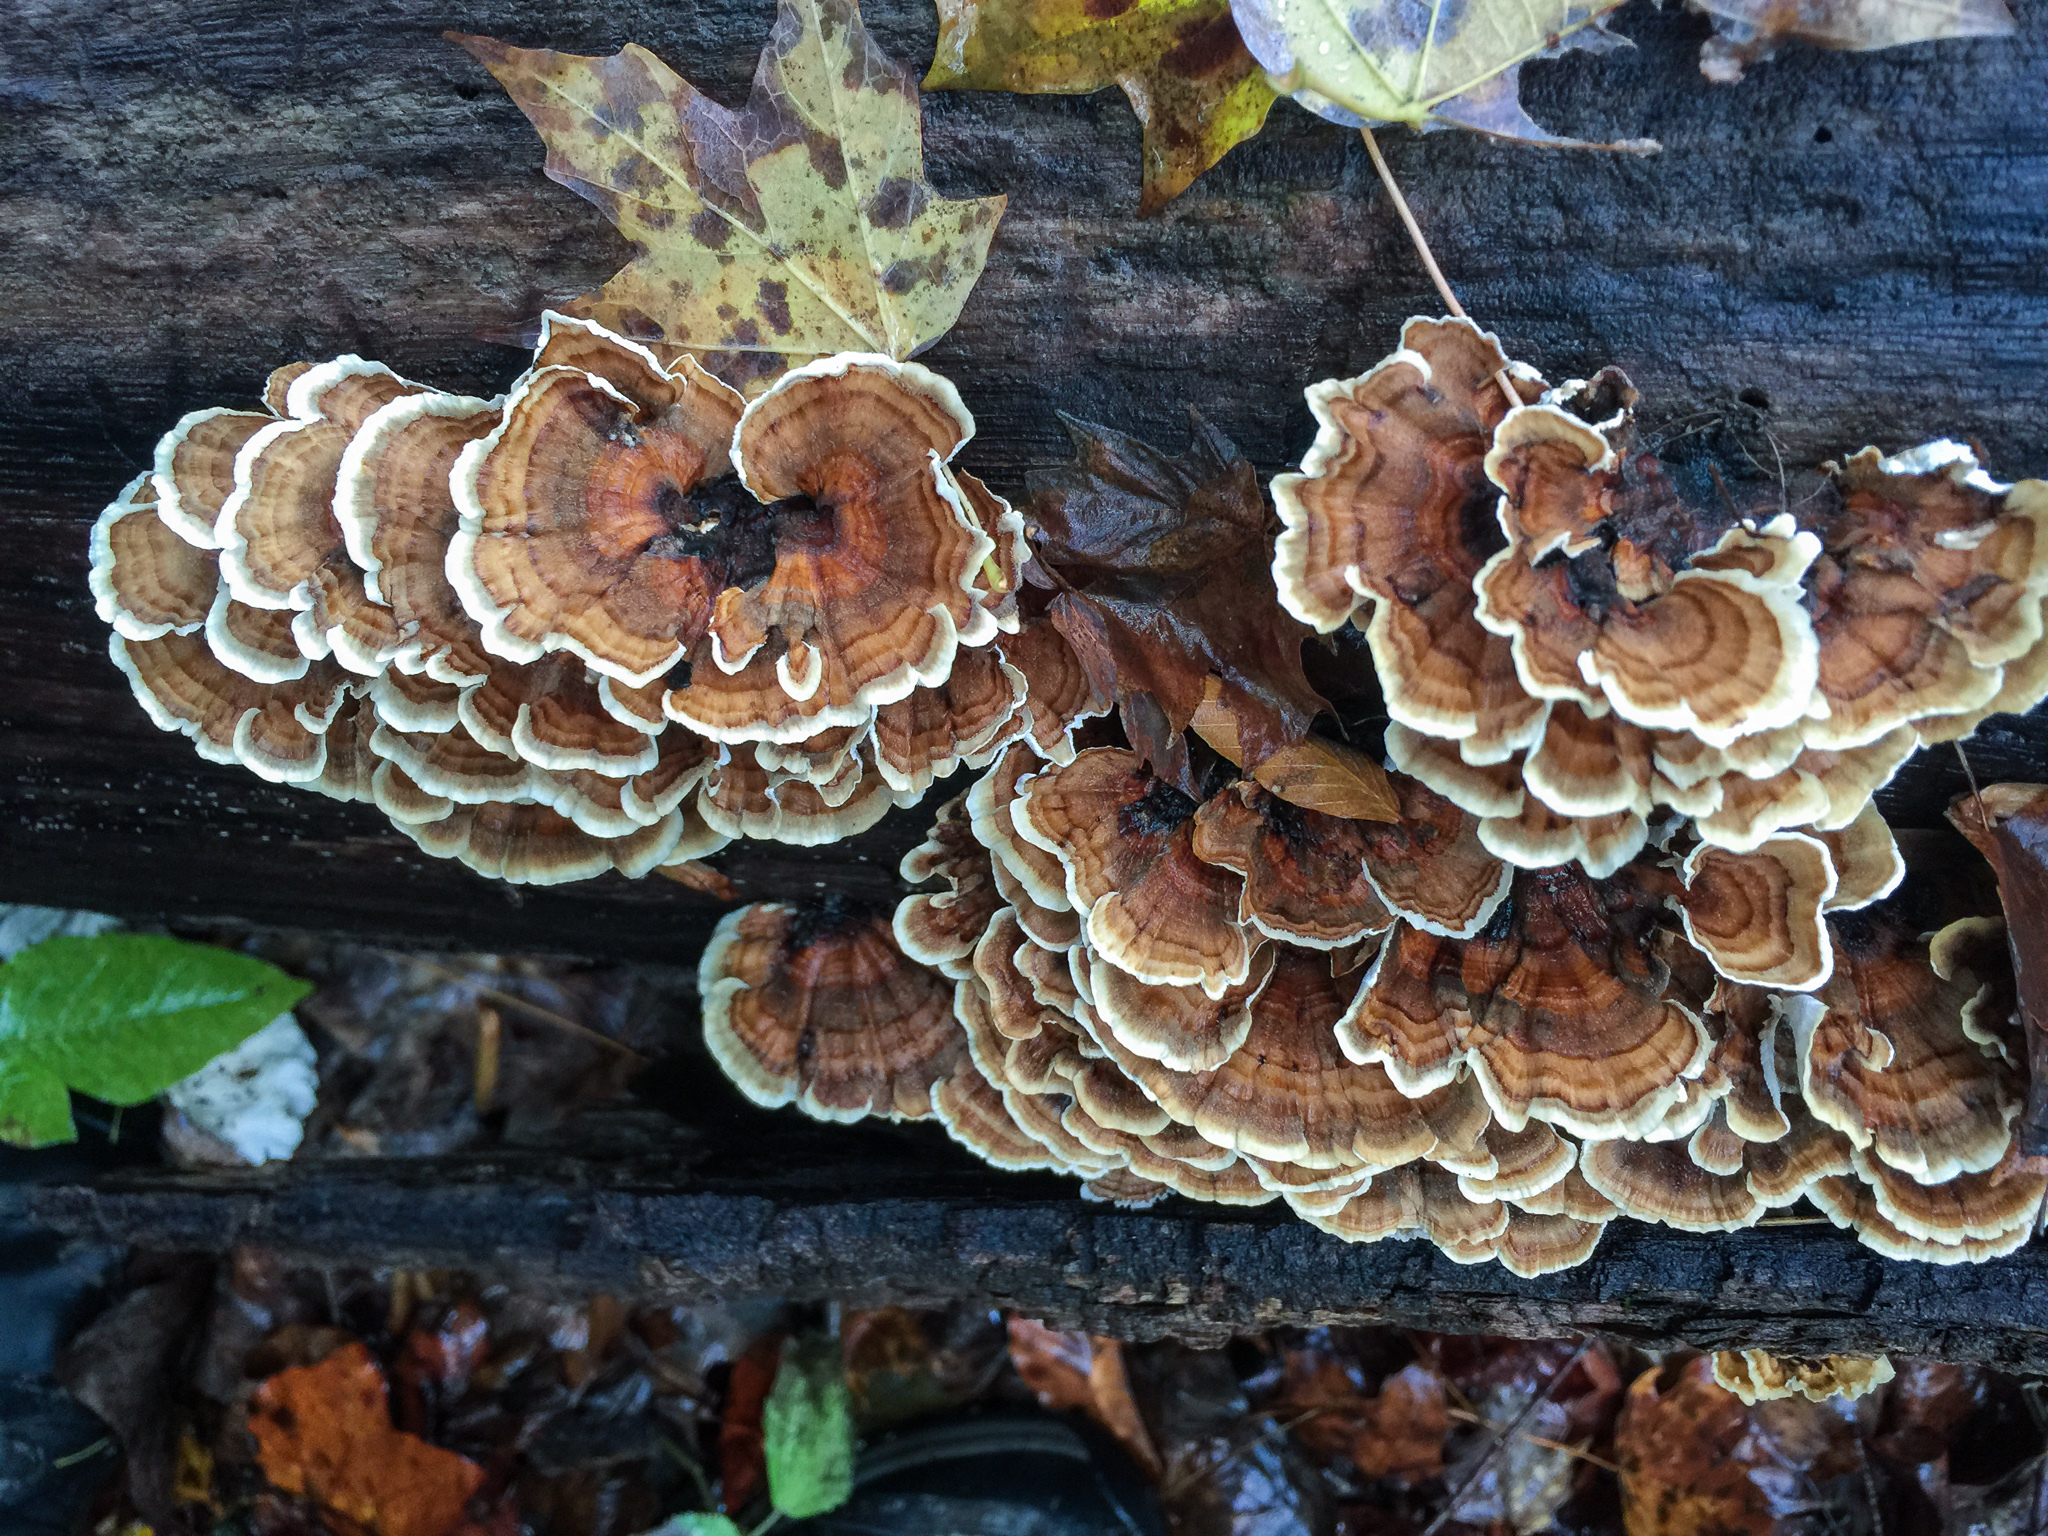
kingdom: Fungi
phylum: Basidiomycota
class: Agaricomycetes
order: Polyporales
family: Polyporaceae
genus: Trametes
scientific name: Trametes versicolor
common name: Turkeytail
